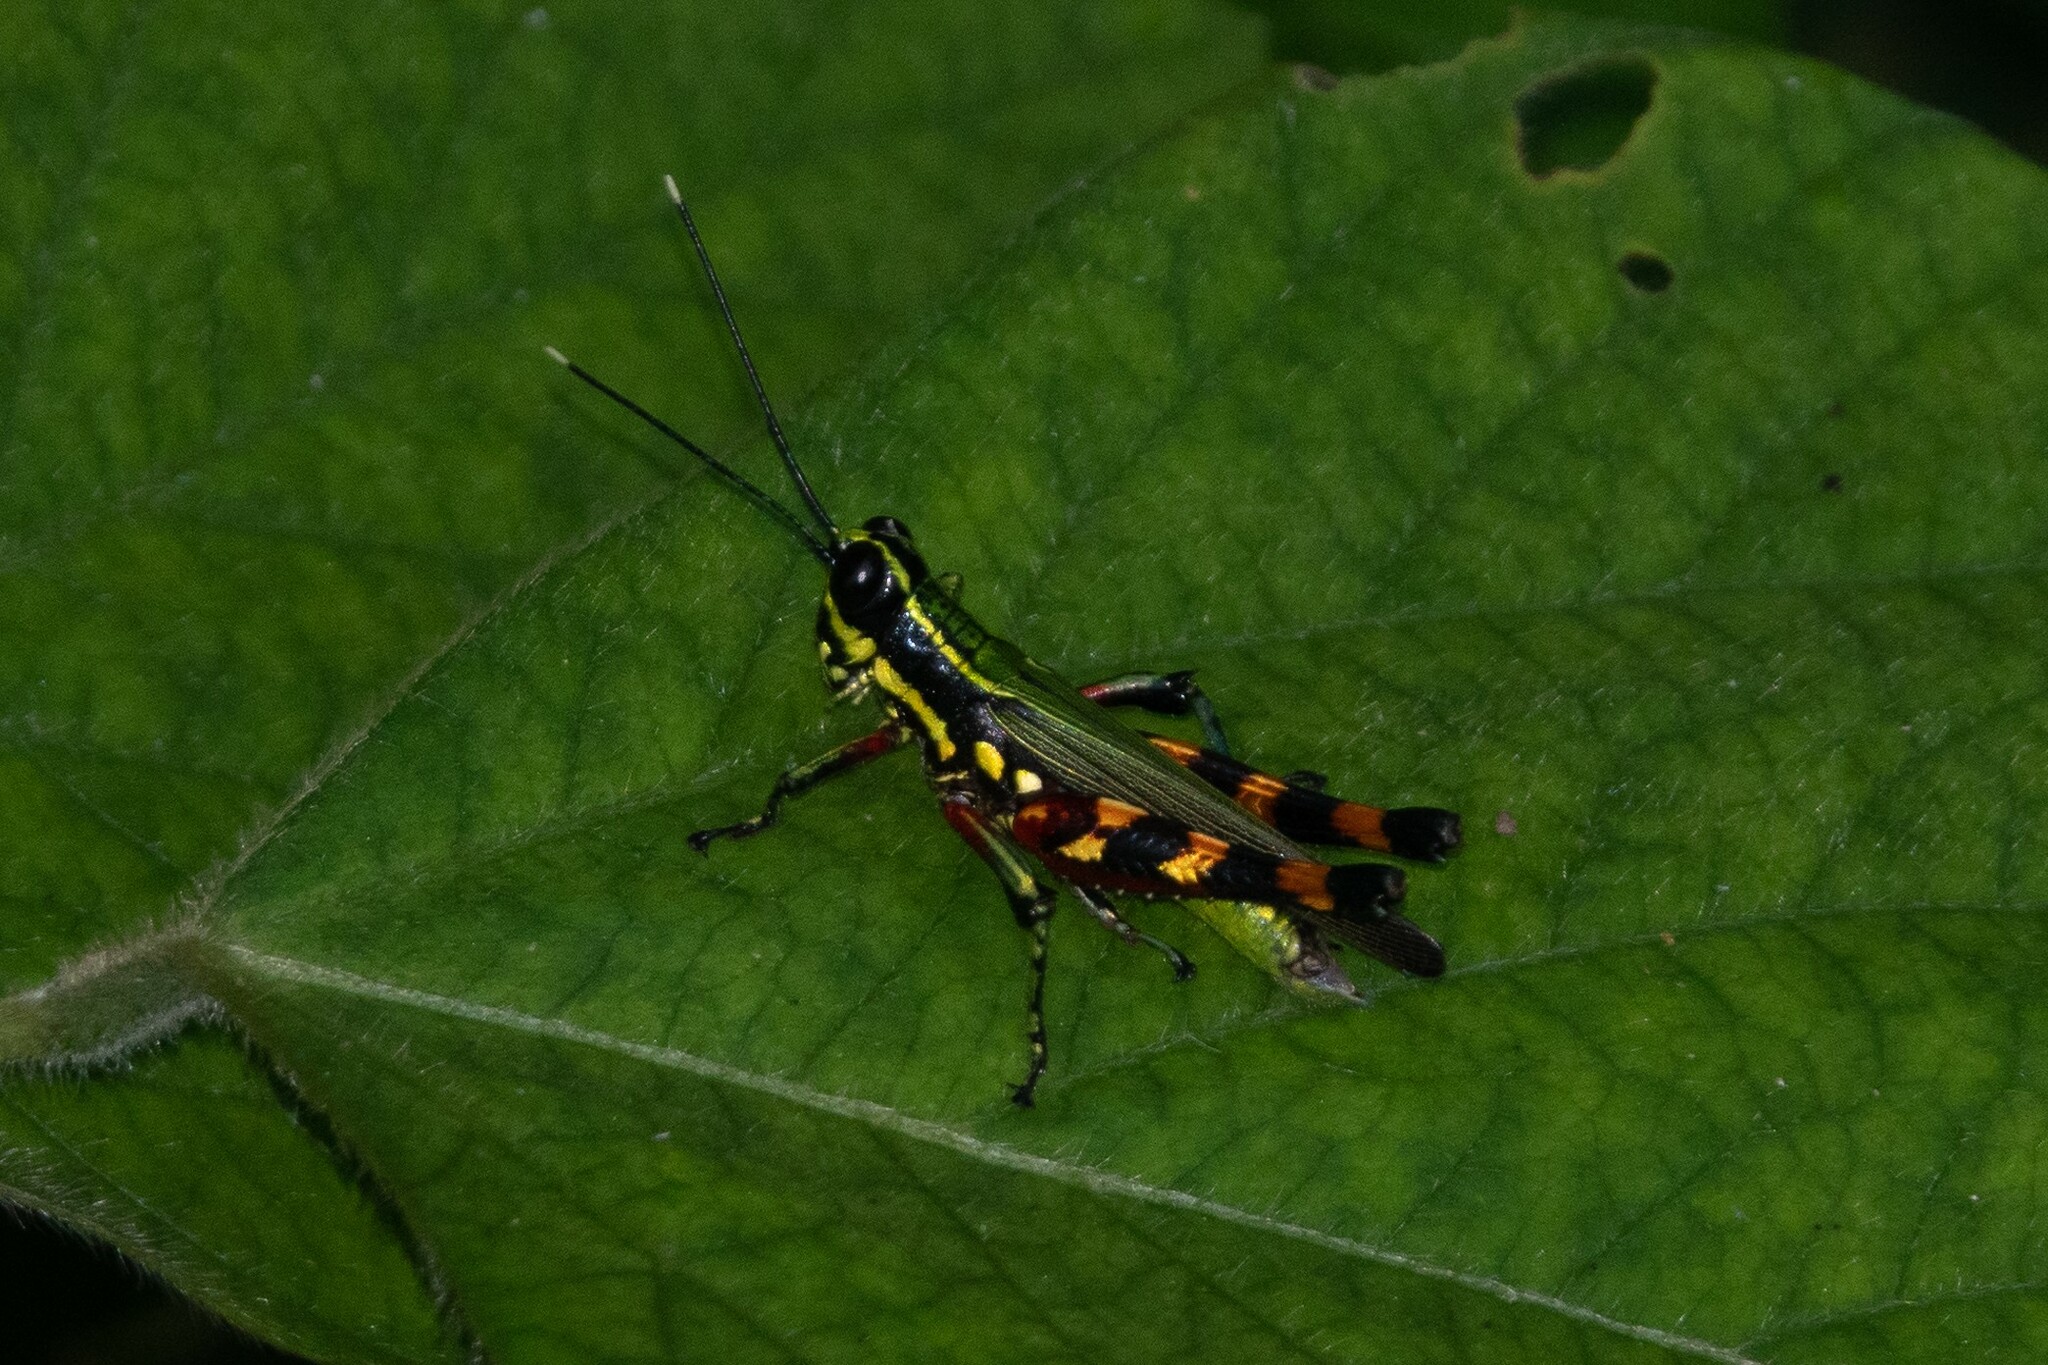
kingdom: Animalia
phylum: Arthropoda
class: Insecta
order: Orthoptera
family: Acrididae
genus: Tetrataenia
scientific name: Tetrataenia surinama
